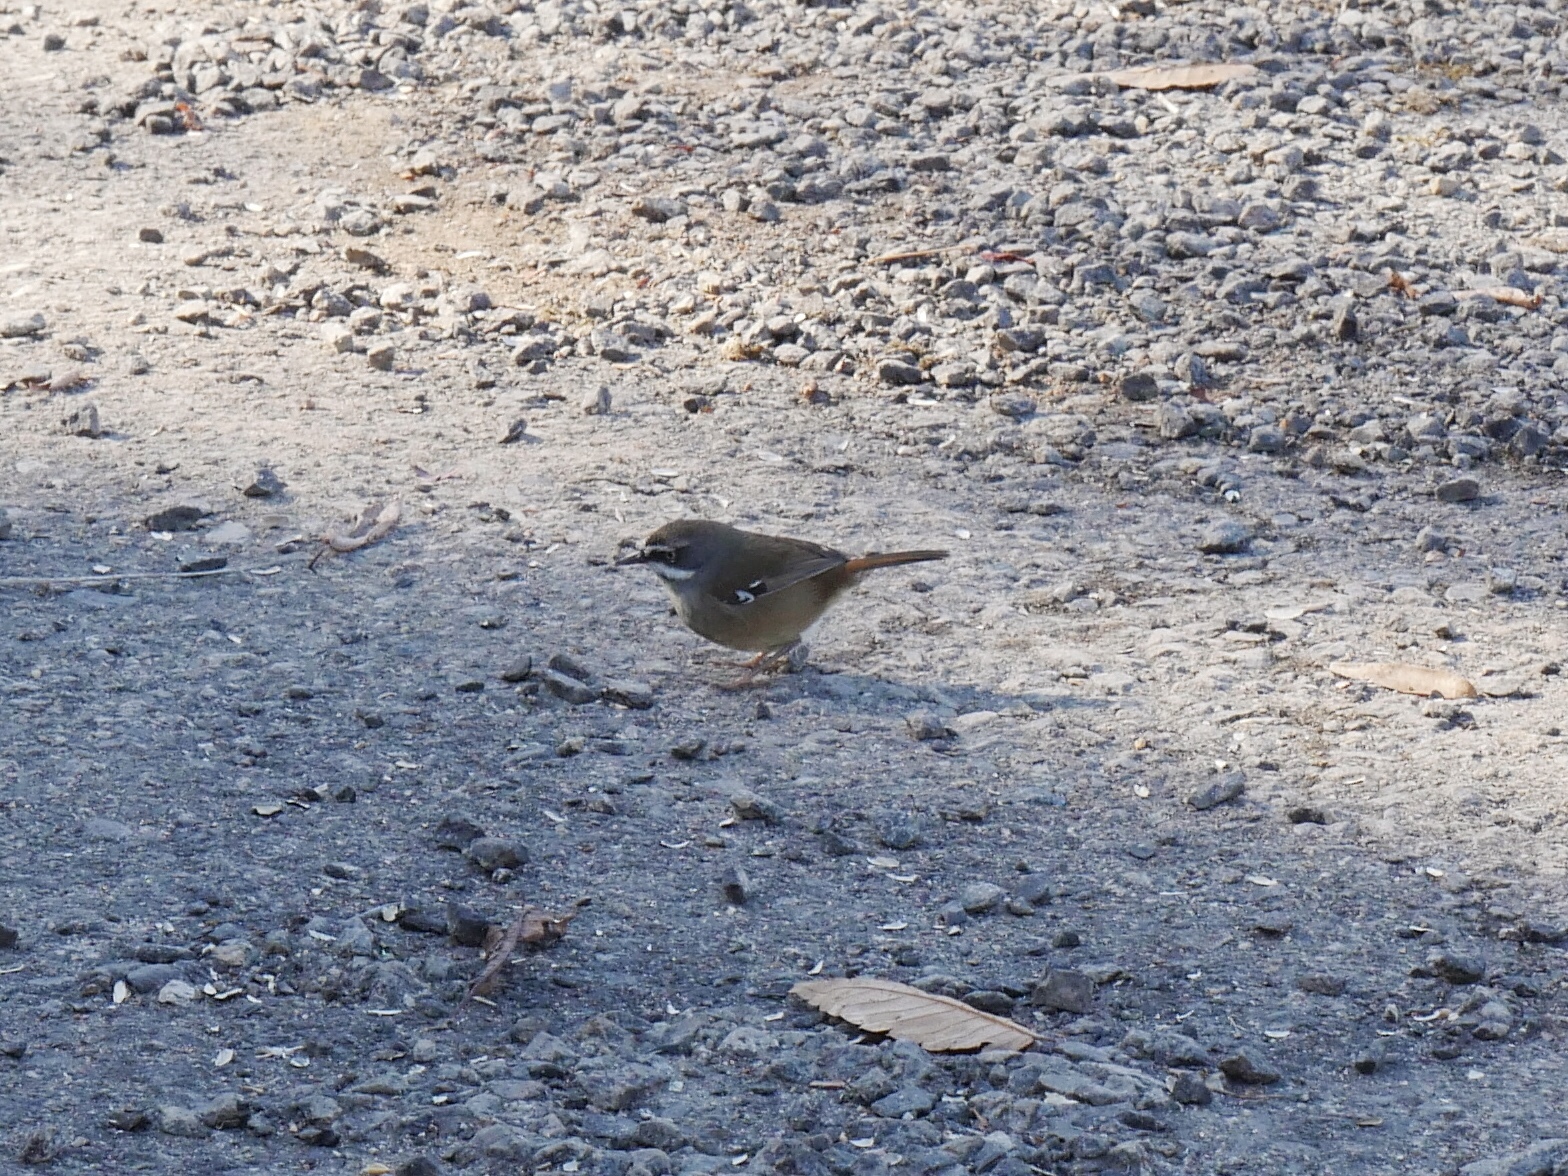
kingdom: Animalia
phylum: Chordata
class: Aves
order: Passeriformes
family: Acanthizidae
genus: Sericornis
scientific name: Sericornis frontalis
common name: White-browed scrubwren
